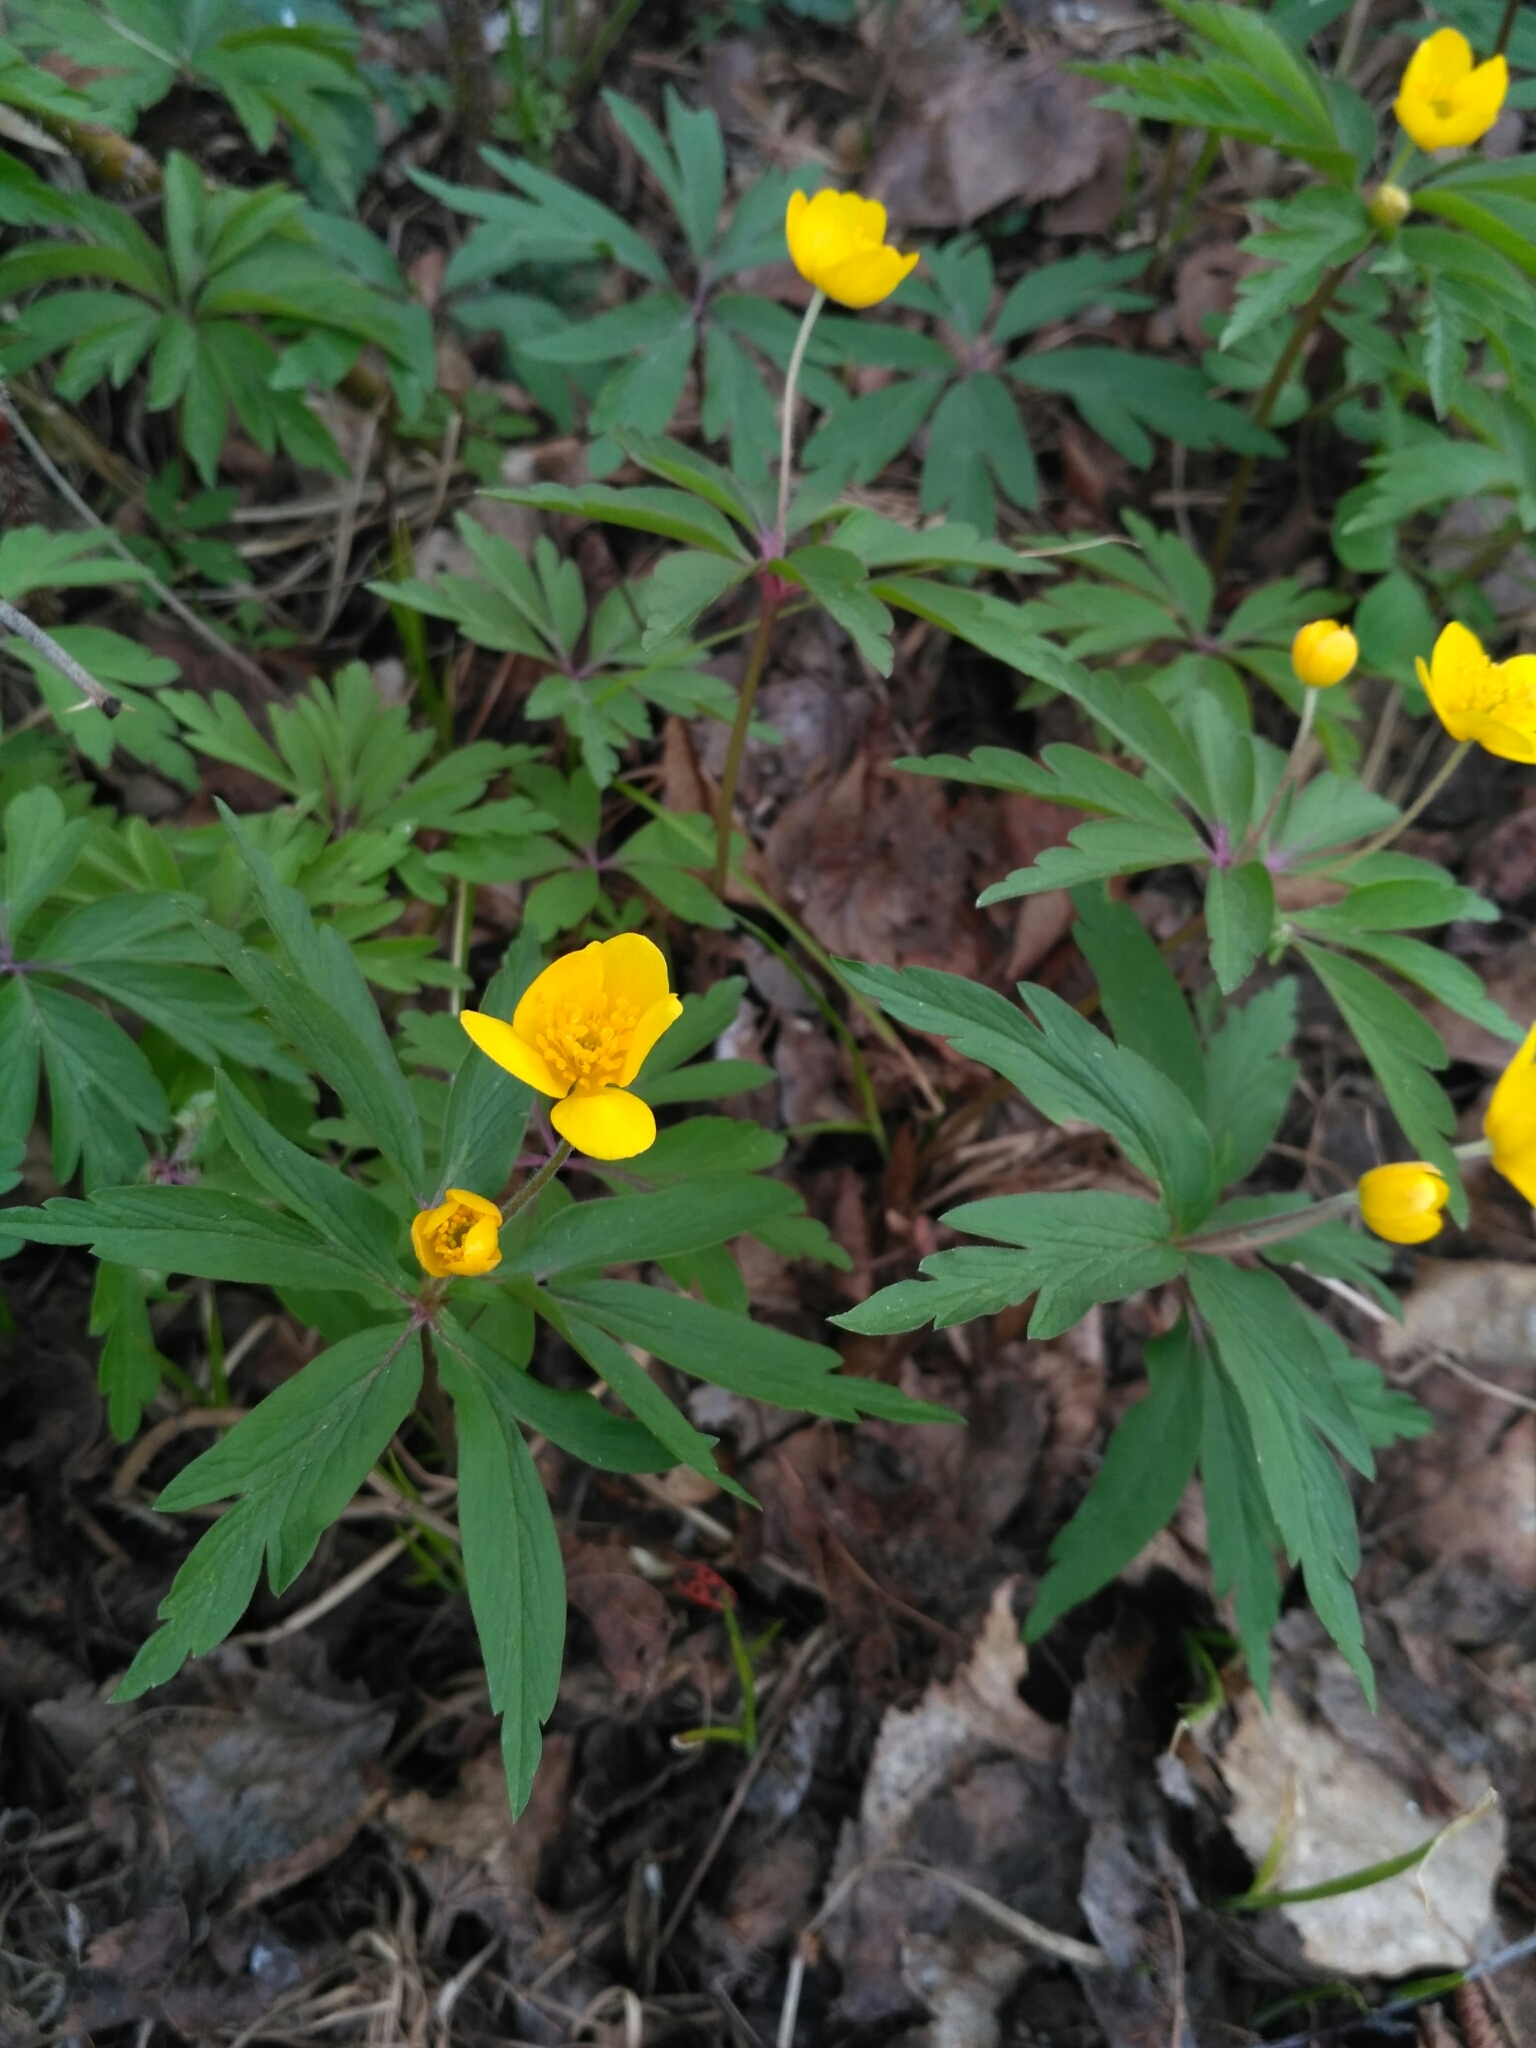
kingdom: Plantae
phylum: Tracheophyta
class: Magnoliopsida
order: Ranunculales
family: Ranunculaceae
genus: Anemone
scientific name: Anemone ranunculoides
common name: Yellow anemone
